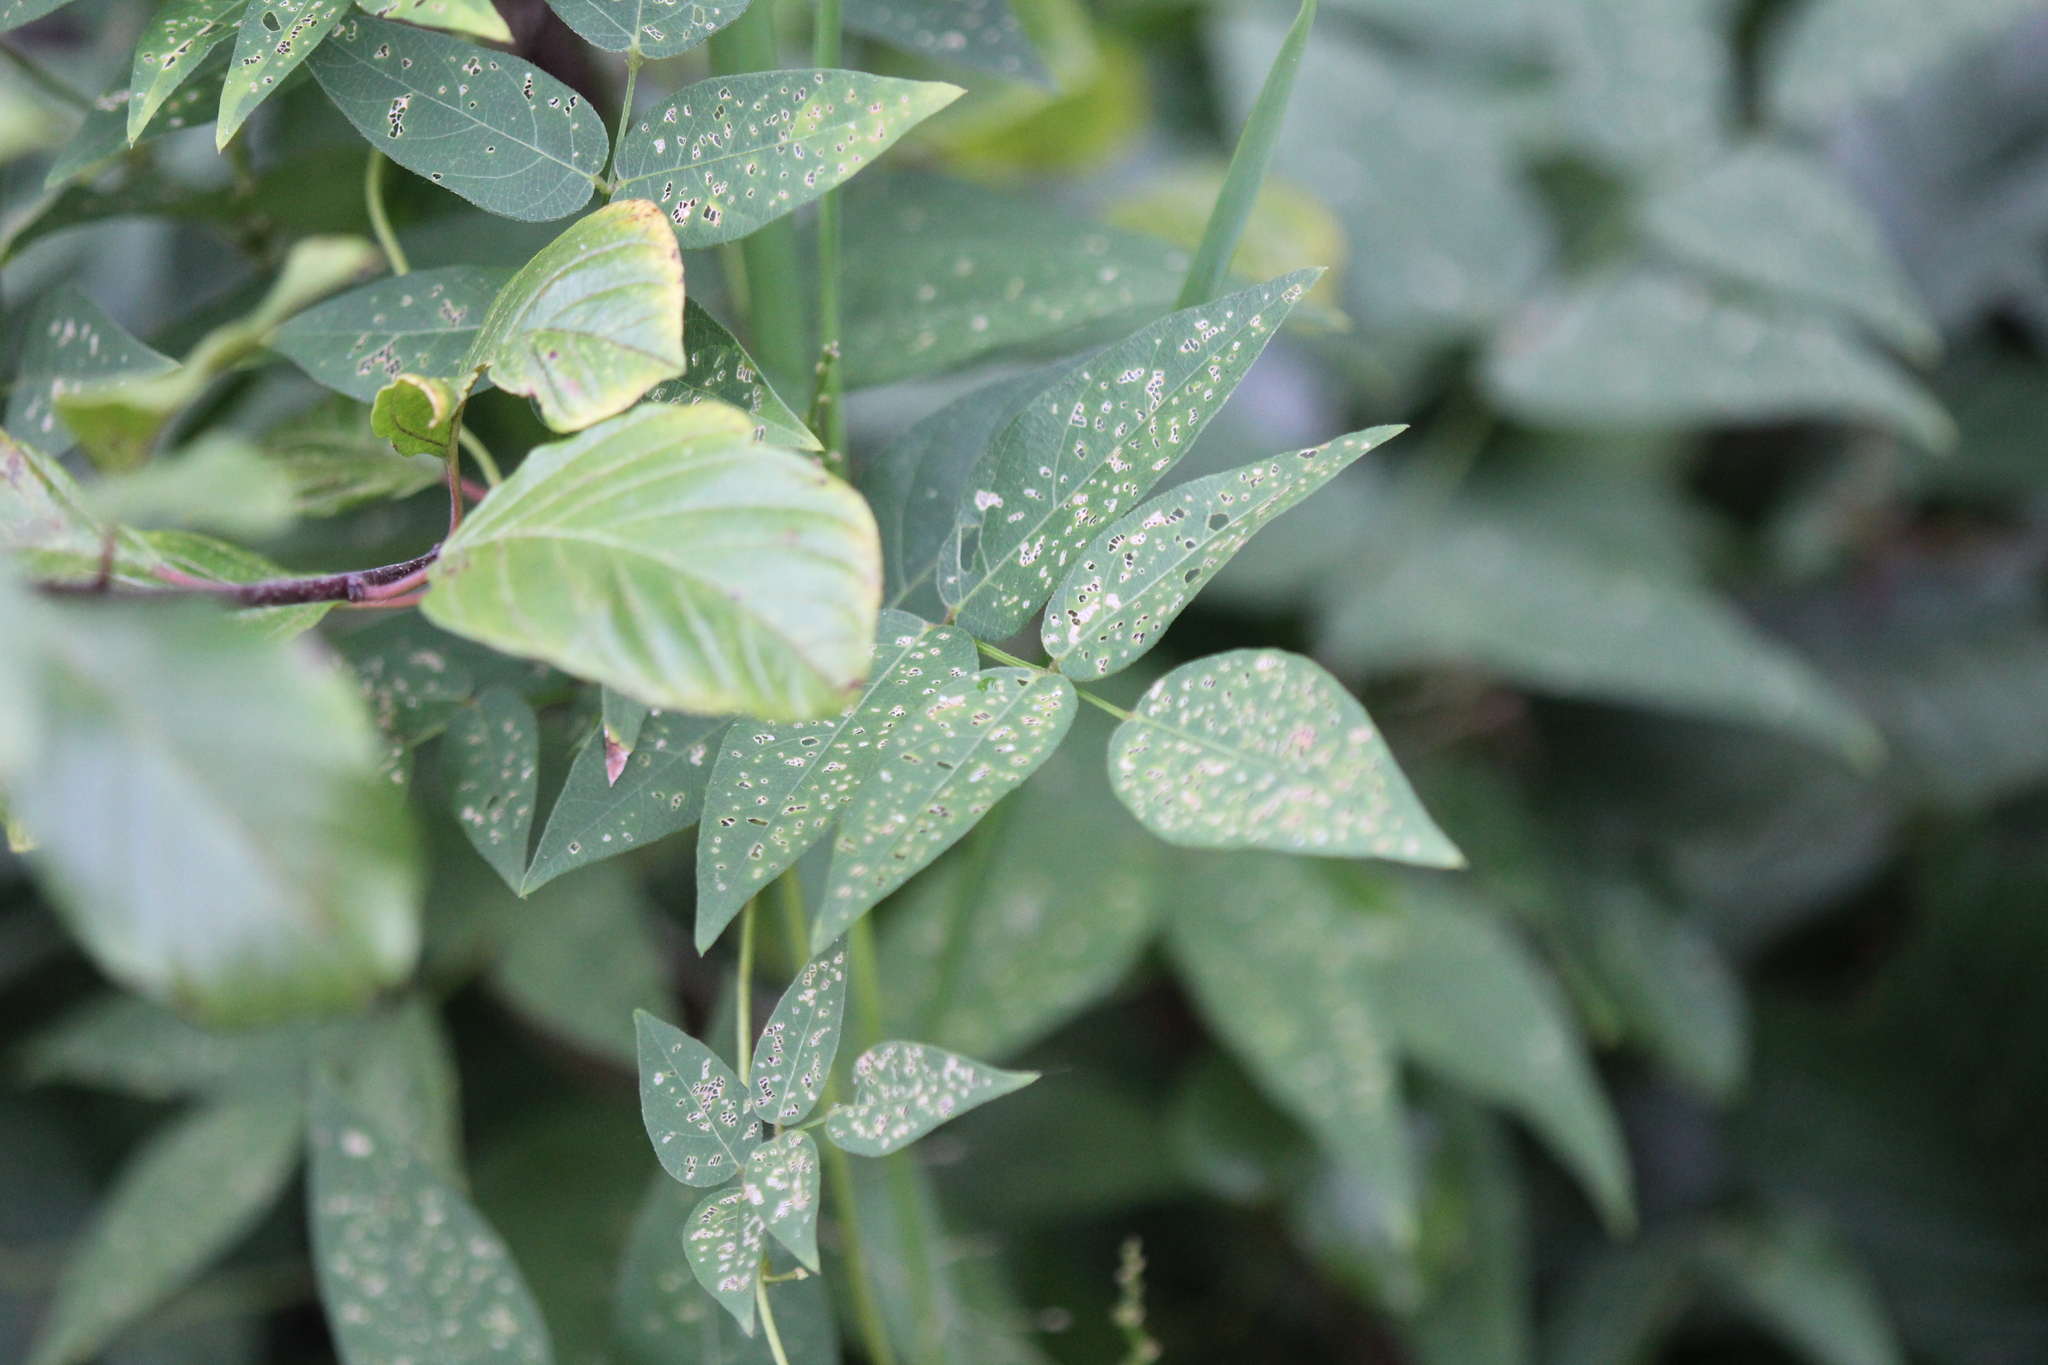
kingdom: Plantae
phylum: Tracheophyta
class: Magnoliopsida
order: Fabales
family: Fabaceae
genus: Apios
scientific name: Apios americana
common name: American potato-bean
